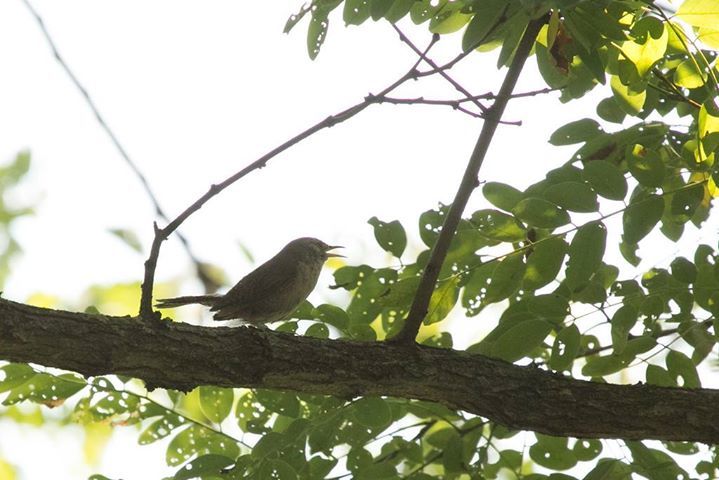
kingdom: Animalia
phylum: Chordata
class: Aves
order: Passeriformes
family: Troglodytidae
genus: Troglodytes
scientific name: Troglodytes aedon
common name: House wren
